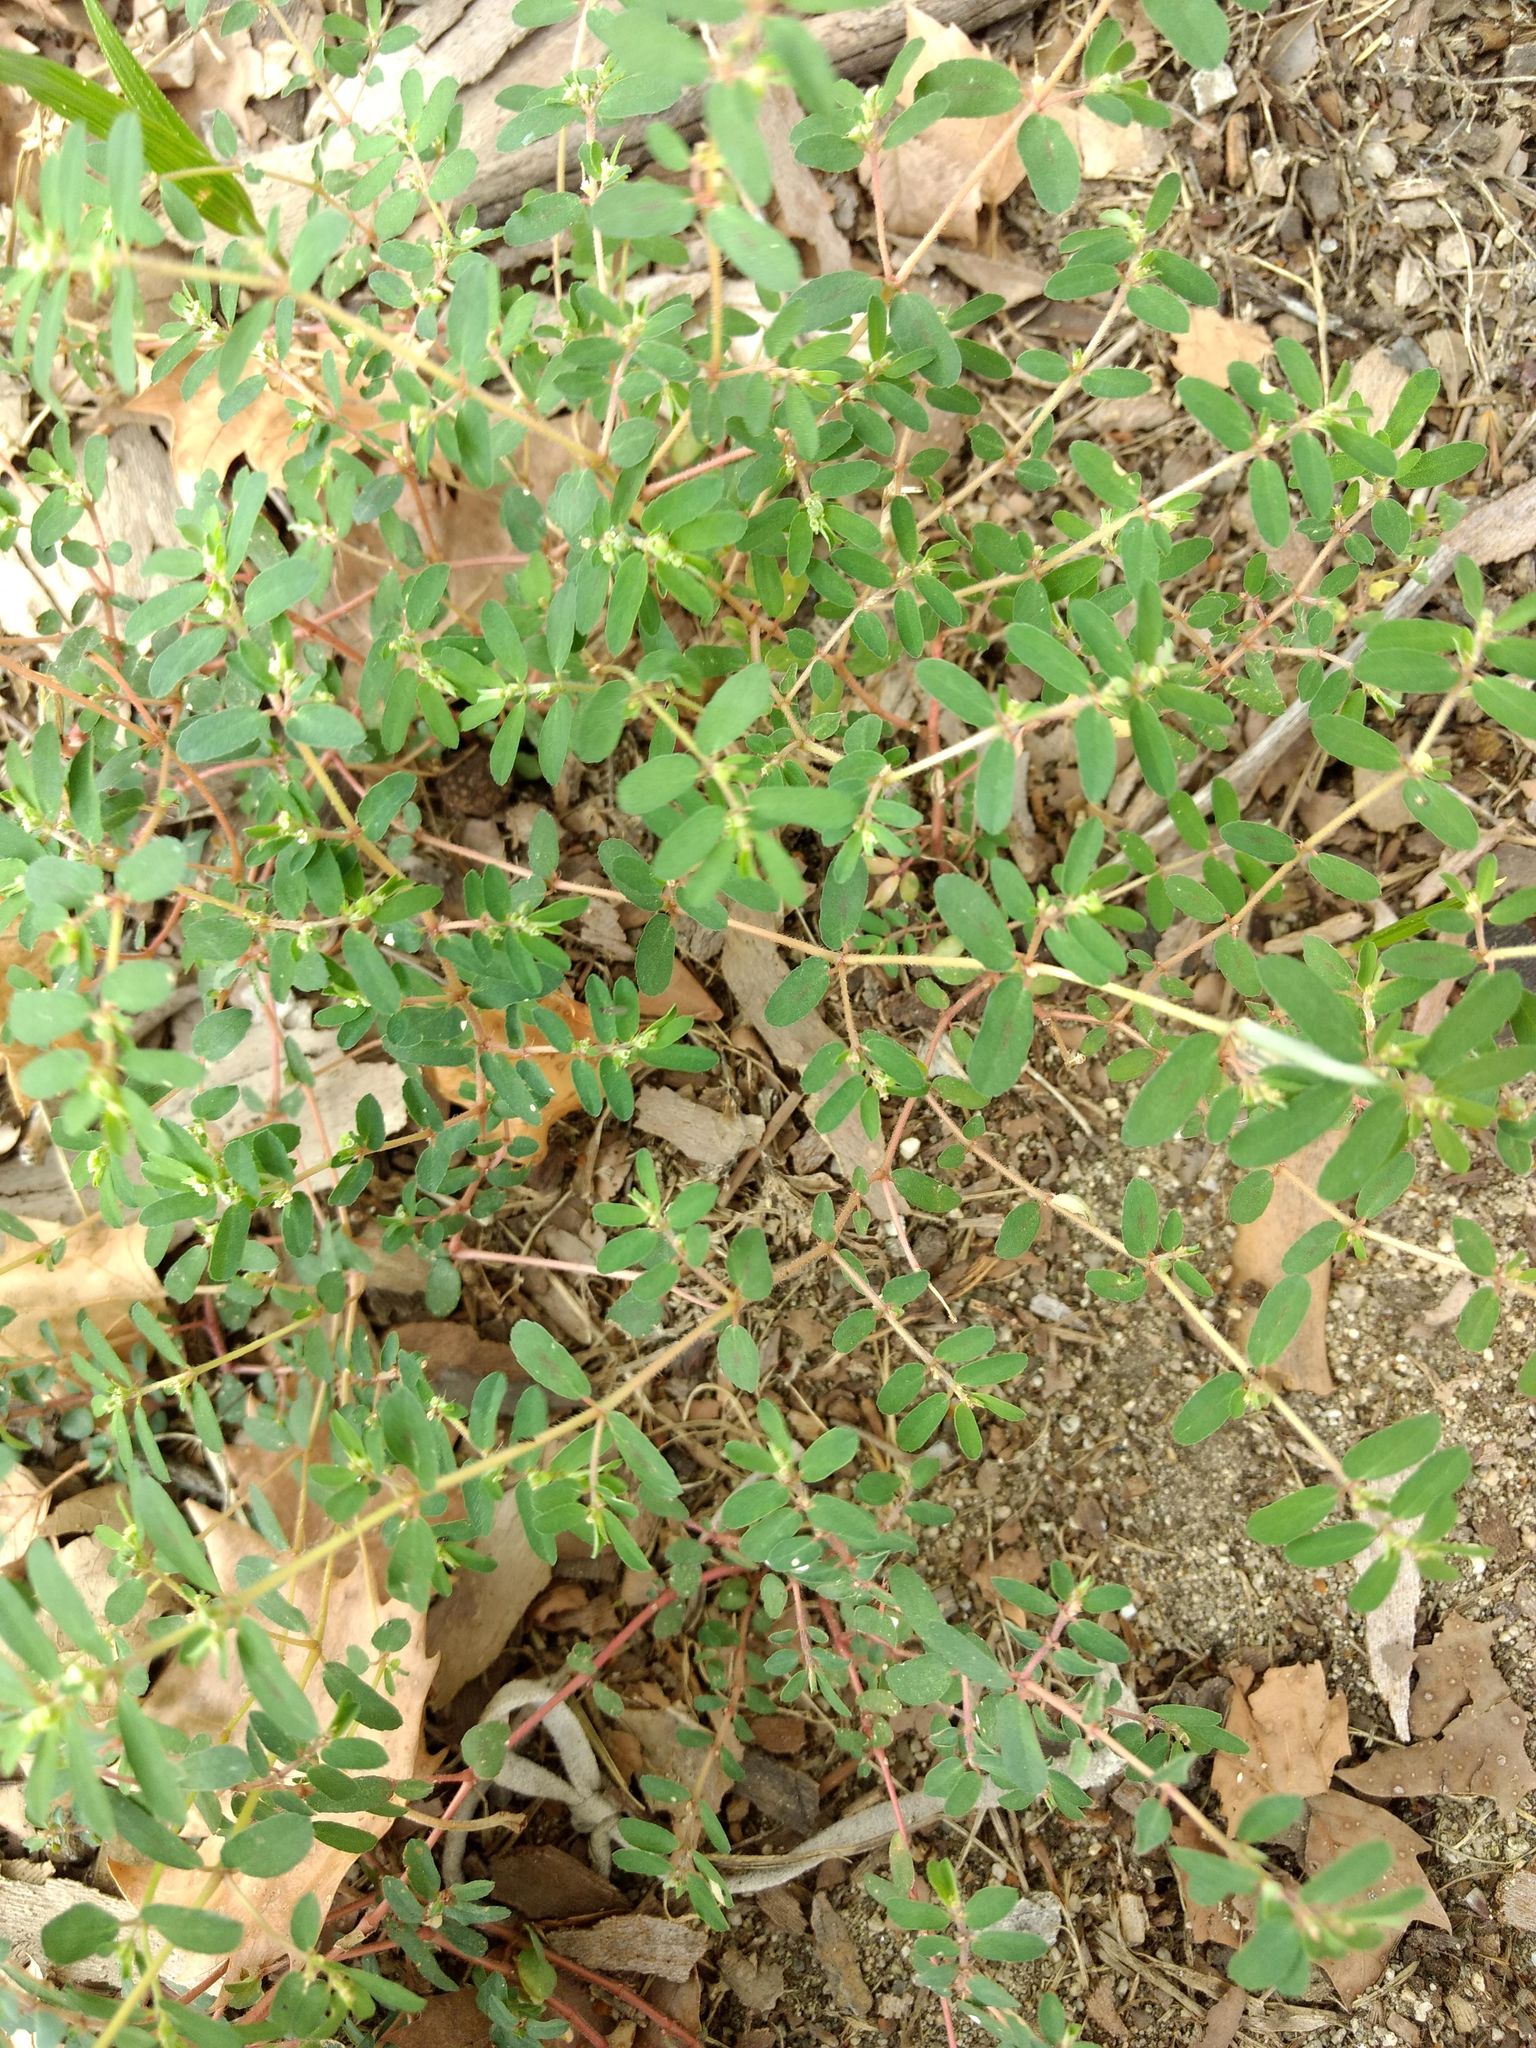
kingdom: Plantae
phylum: Tracheophyta
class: Magnoliopsida
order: Malpighiales
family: Euphorbiaceae
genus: Euphorbia
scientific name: Euphorbia maculata
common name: Spotted spurge
